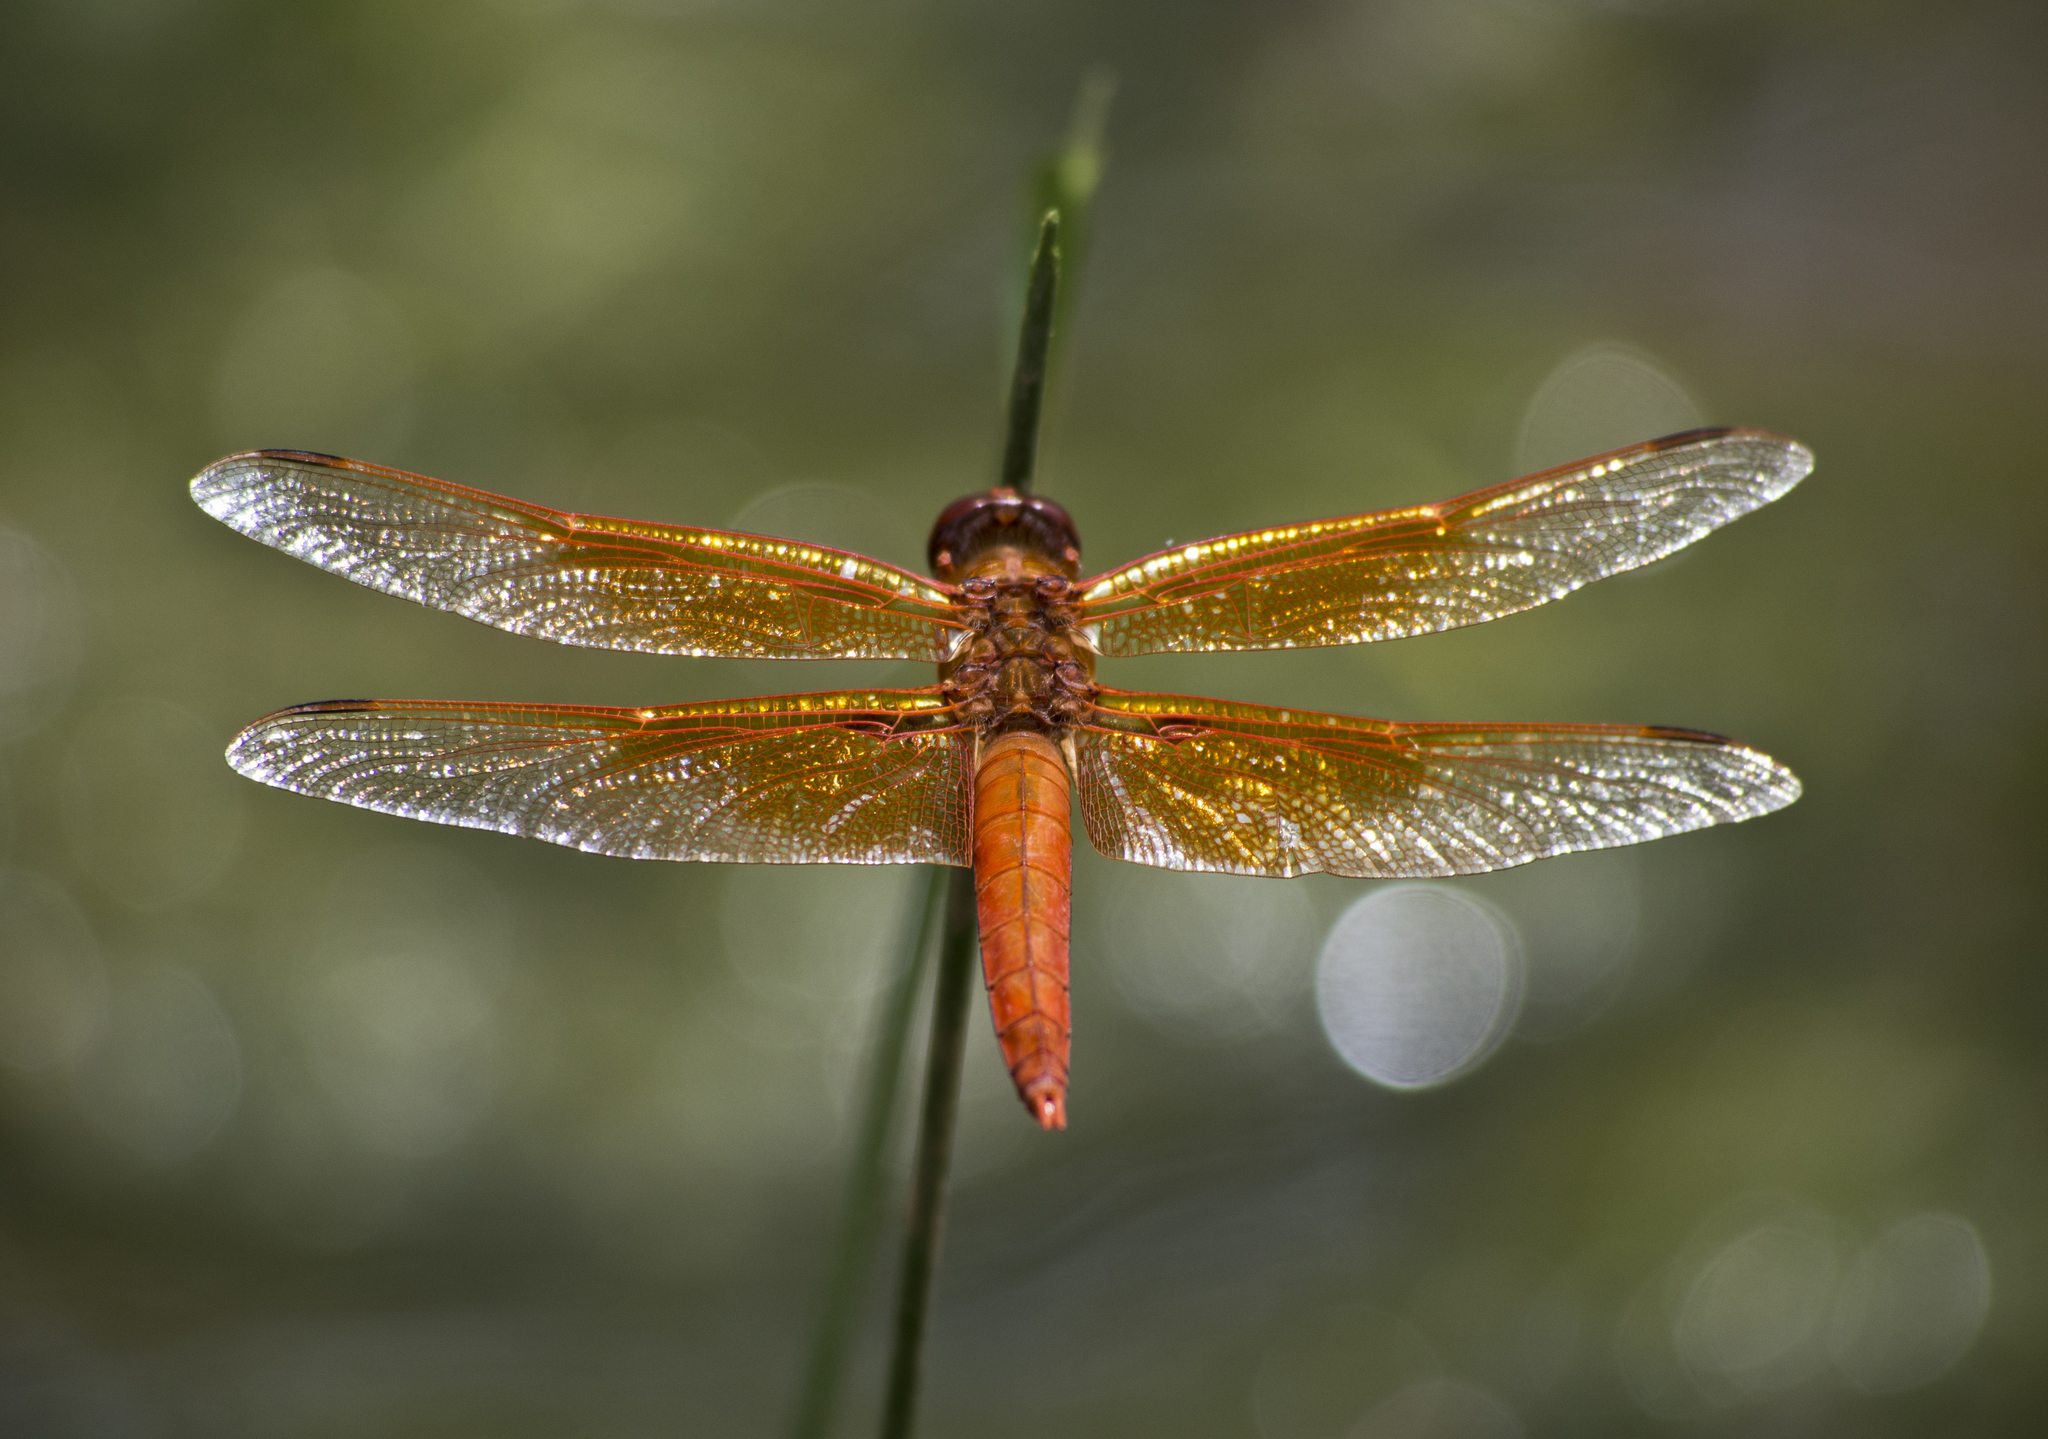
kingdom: Animalia
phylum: Arthropoda
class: Insecta
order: Odonata
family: Libellulidae
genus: Libellula
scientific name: Libellula saturata
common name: Flame skimmer
